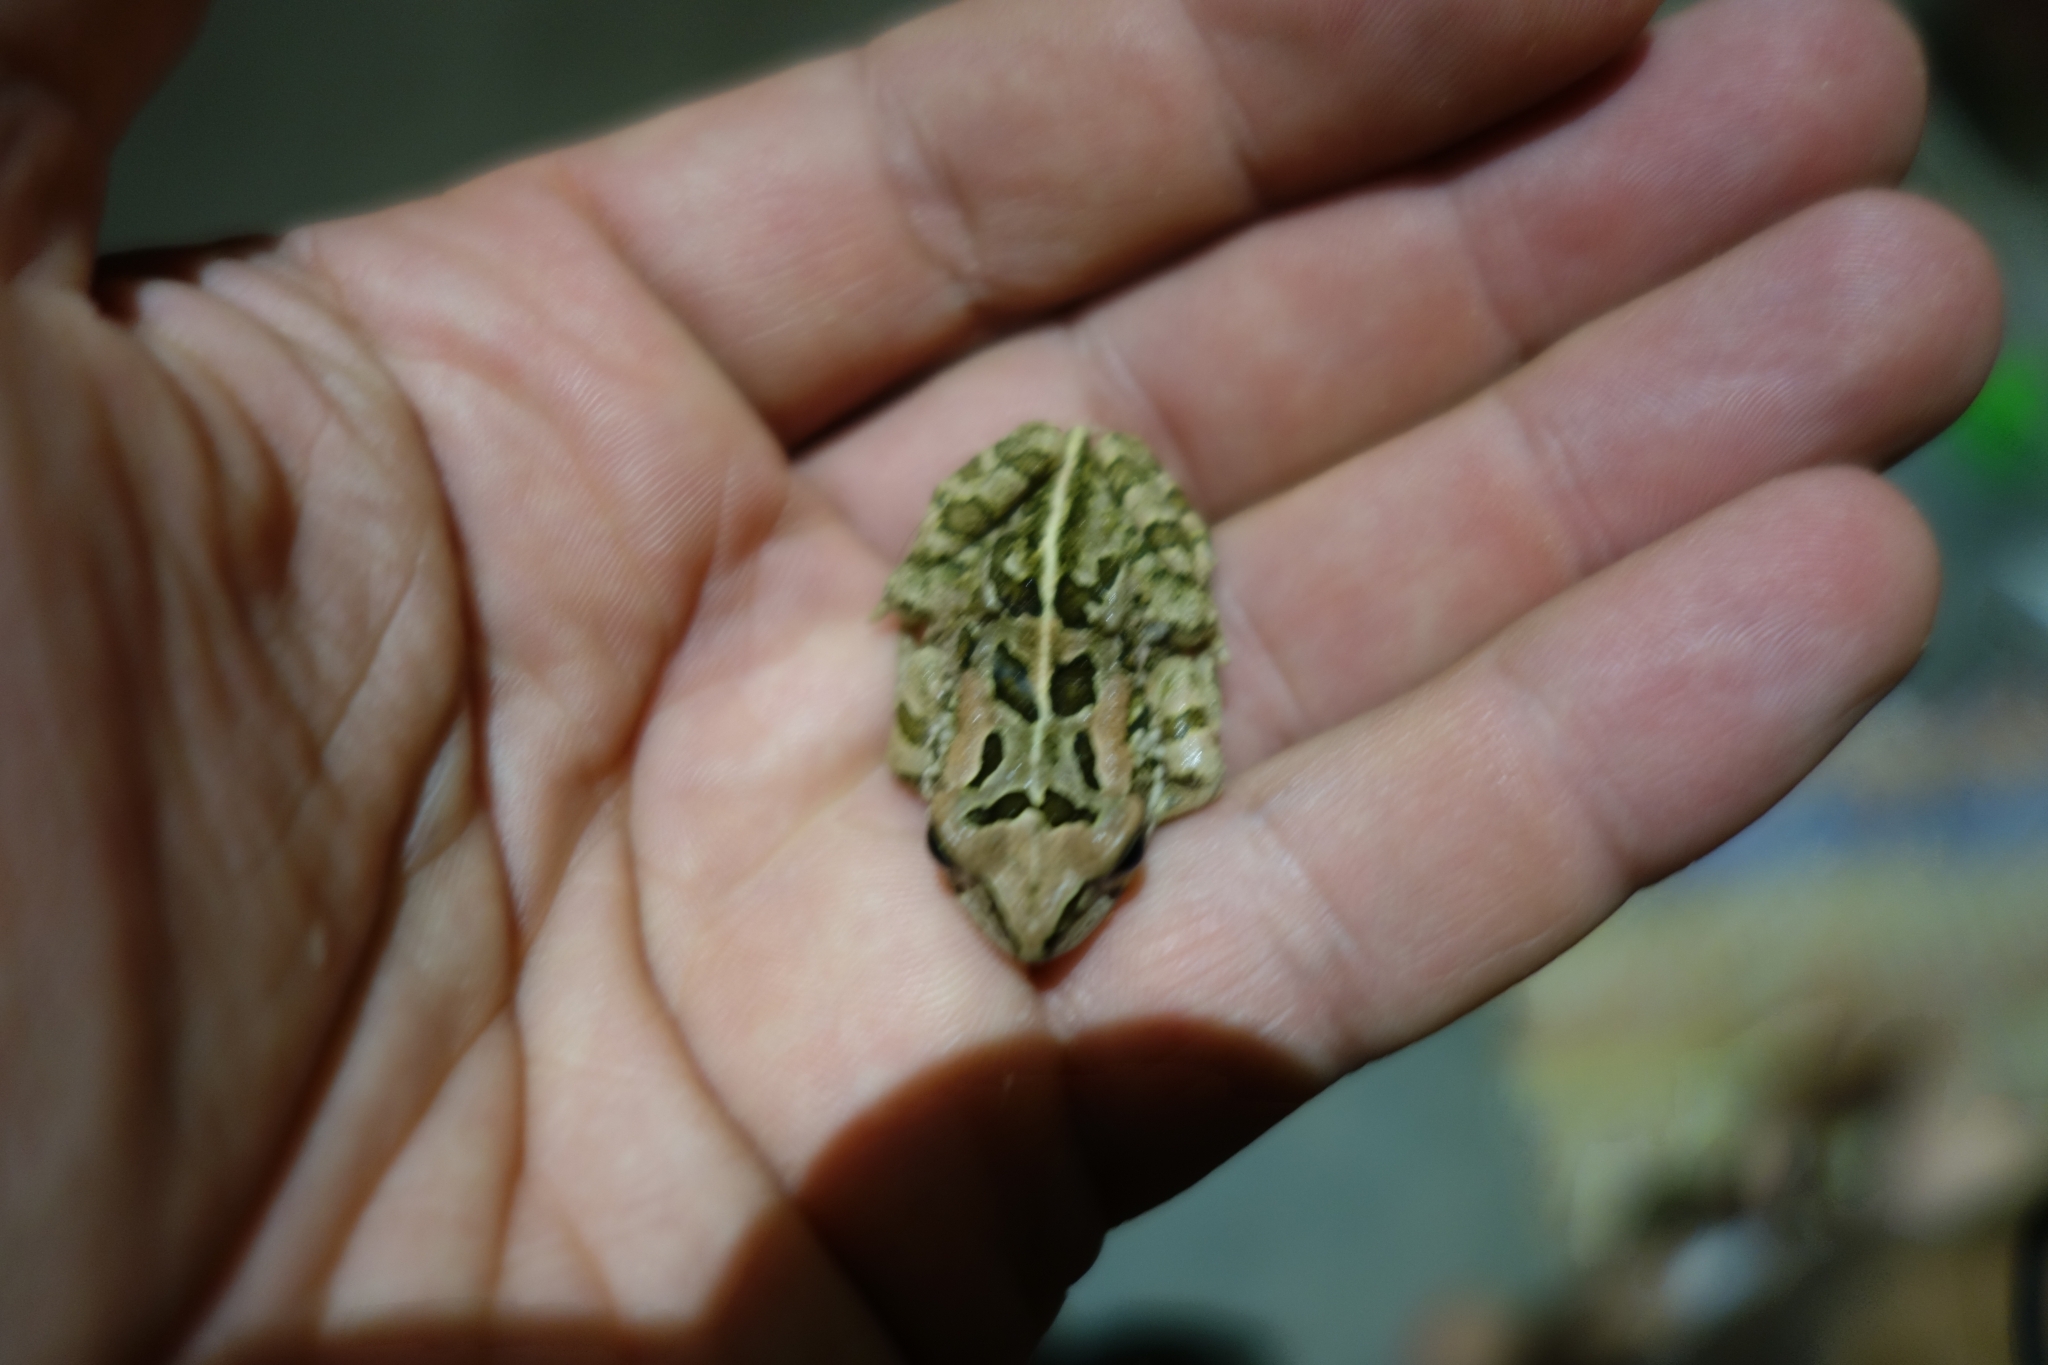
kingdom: Animalia
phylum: Chordata
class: Amphibia
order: Anura
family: Bufonidae
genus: Sclerophrys
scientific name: Sclerophrys capensis
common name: Ranger’s toad
